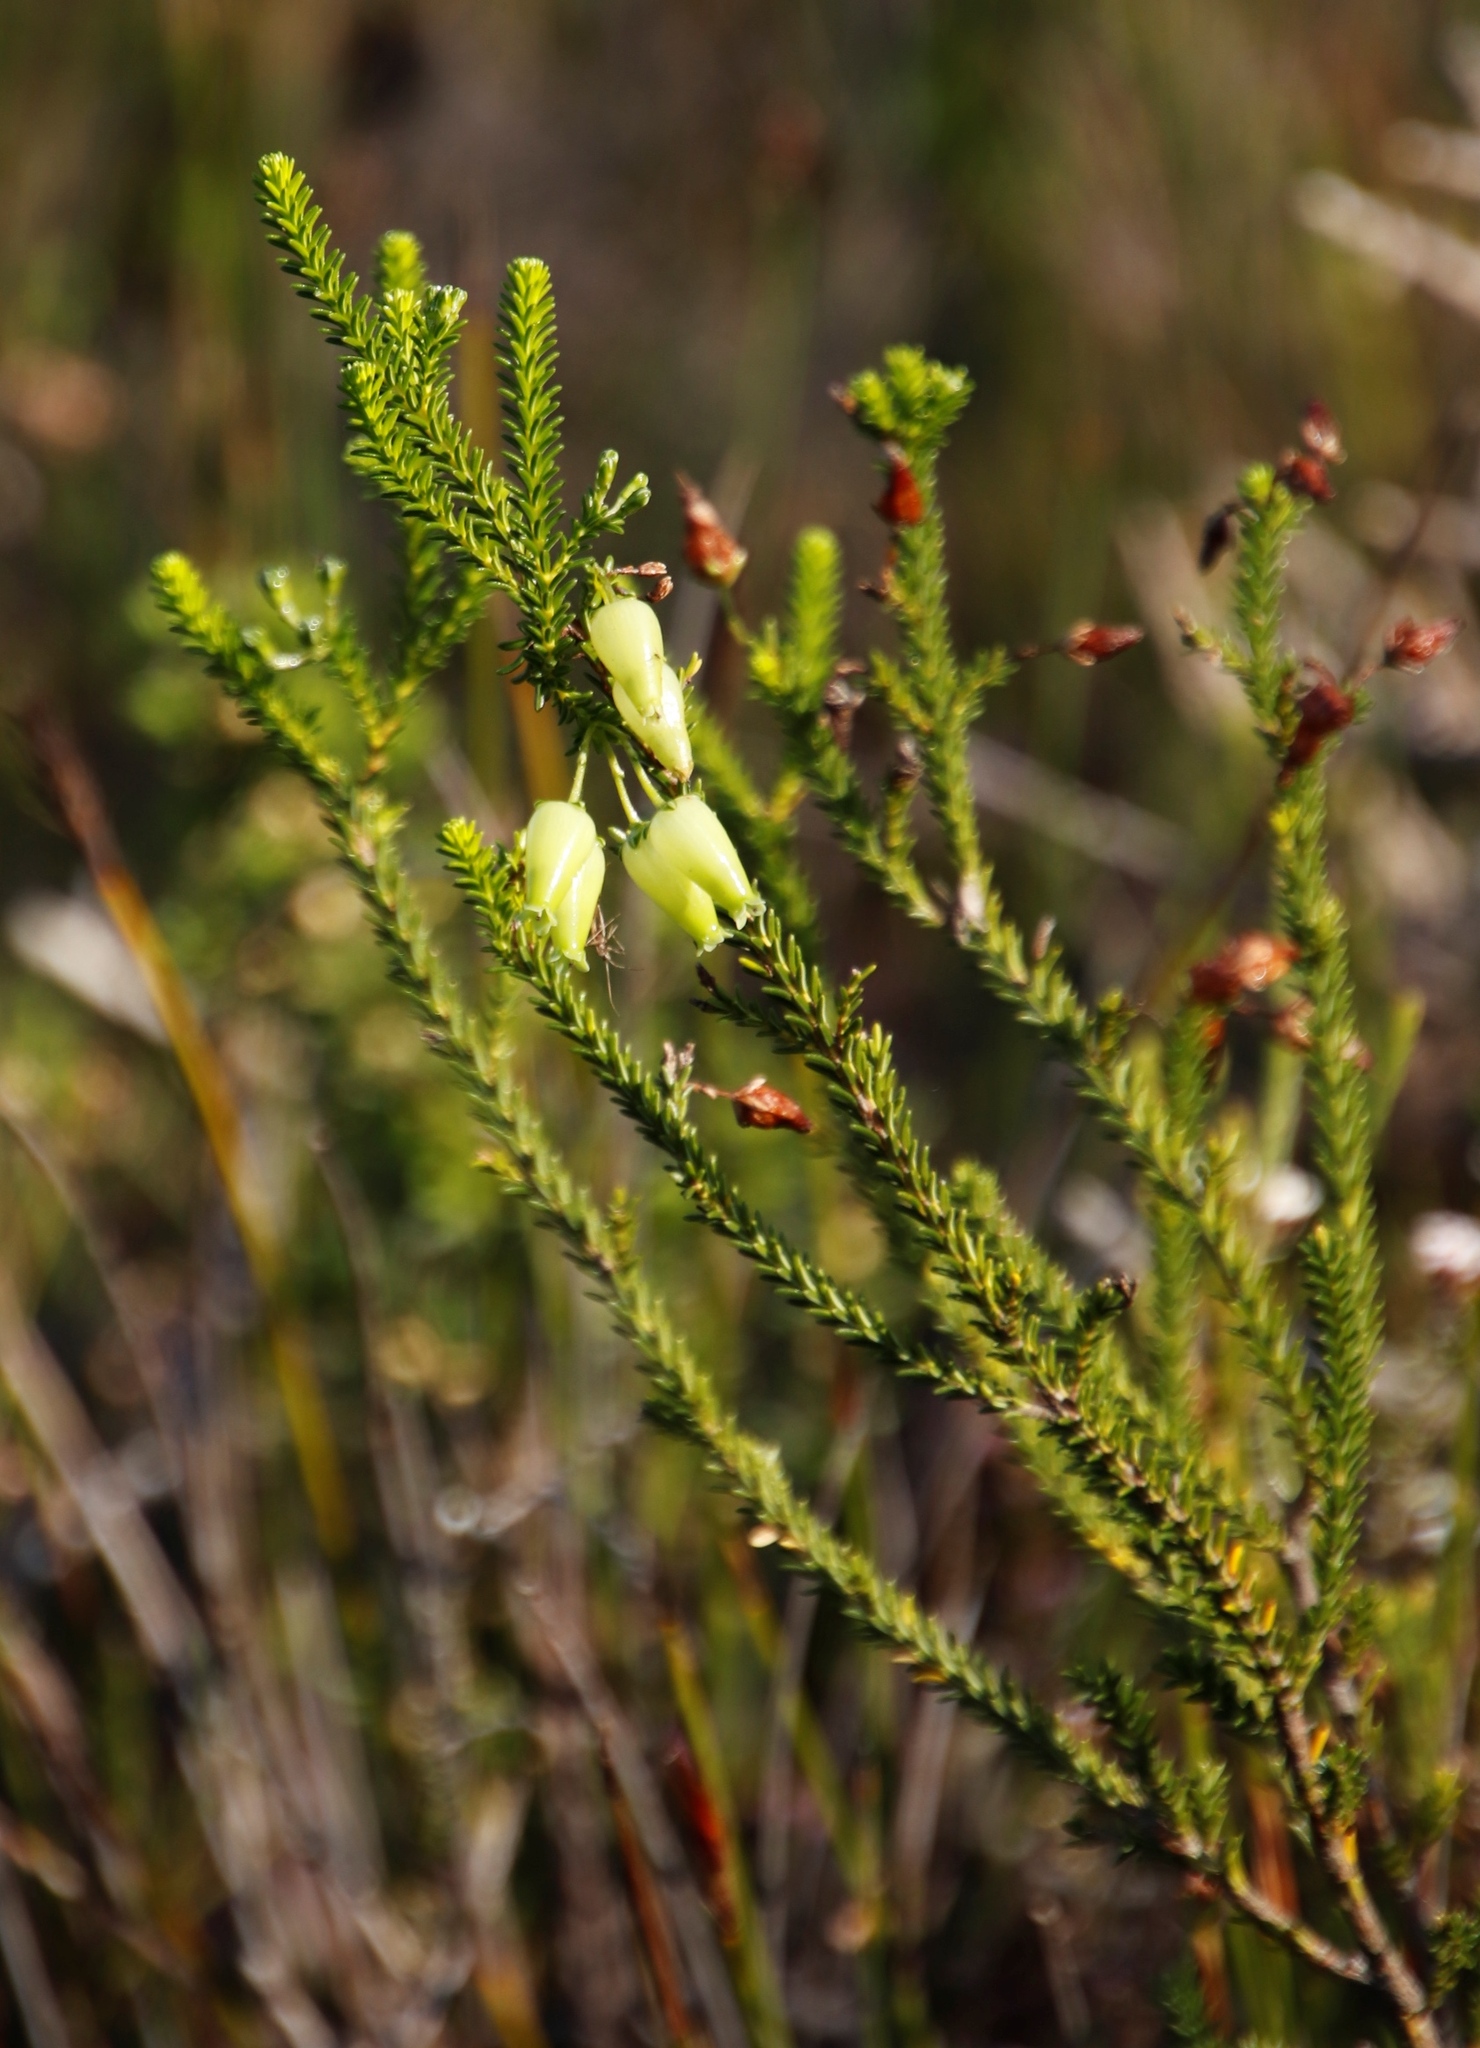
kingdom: Plantae
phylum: Tracheophyta
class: Magnoliopsida
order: Ericales
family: Ericaceae
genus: Erica
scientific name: Erica urna-viridis
